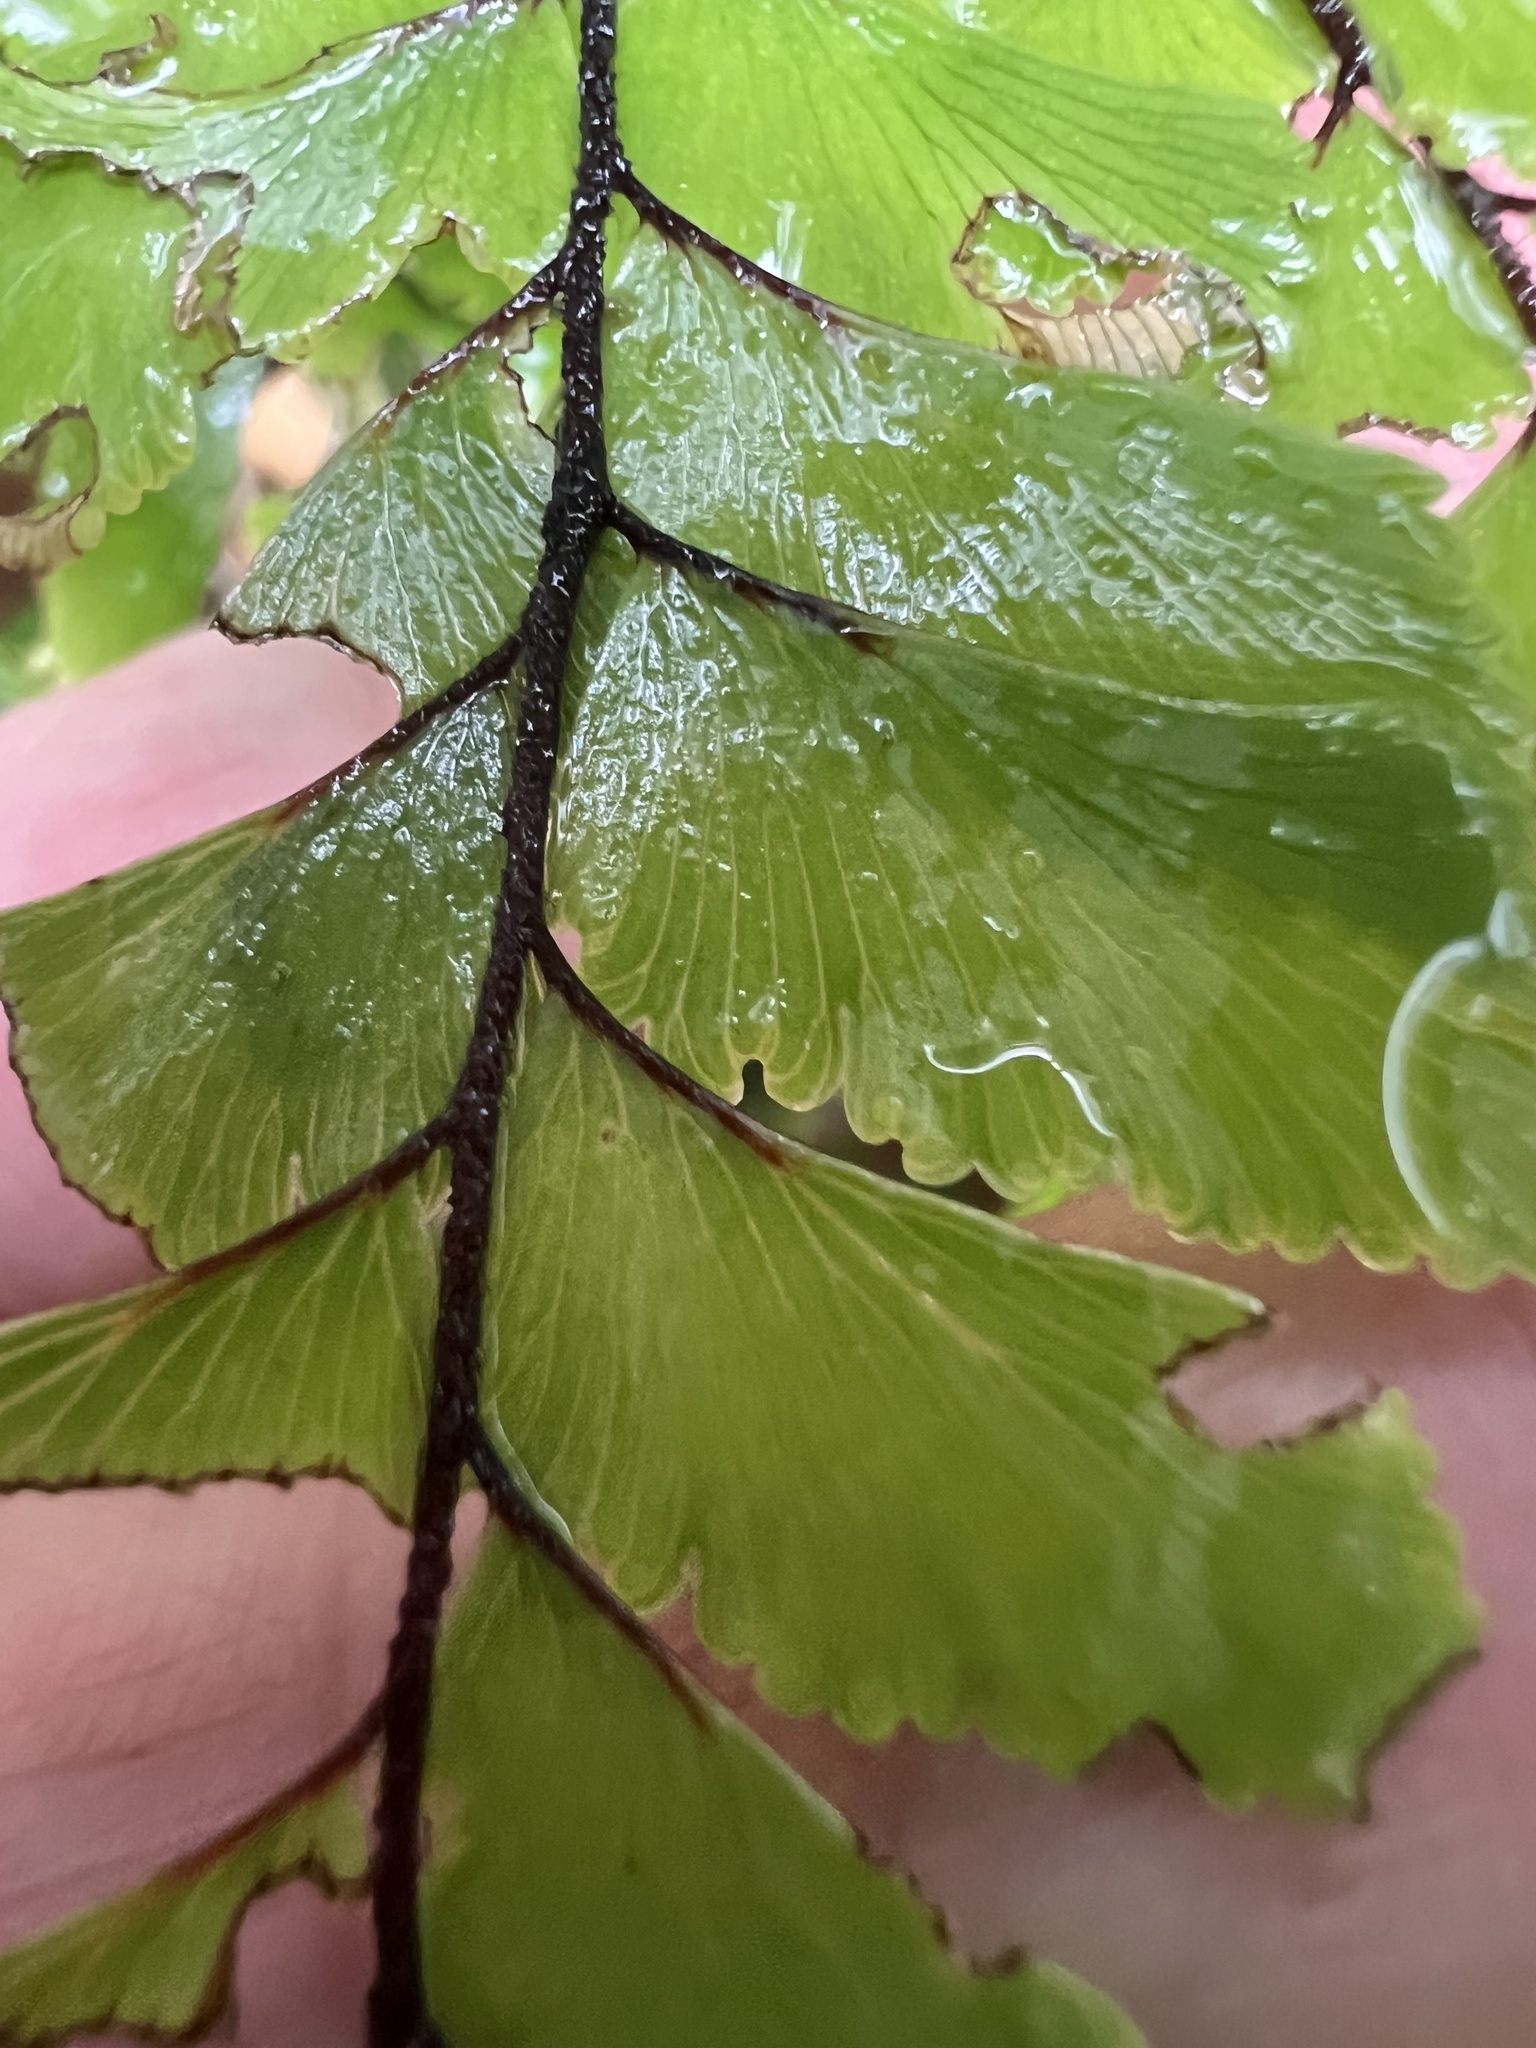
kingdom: Plantae
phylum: Tracheophyta
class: Polypodiopsida
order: Polypodiales
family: Pteridaceae
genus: Adiantum
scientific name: Adiantum fulvum
